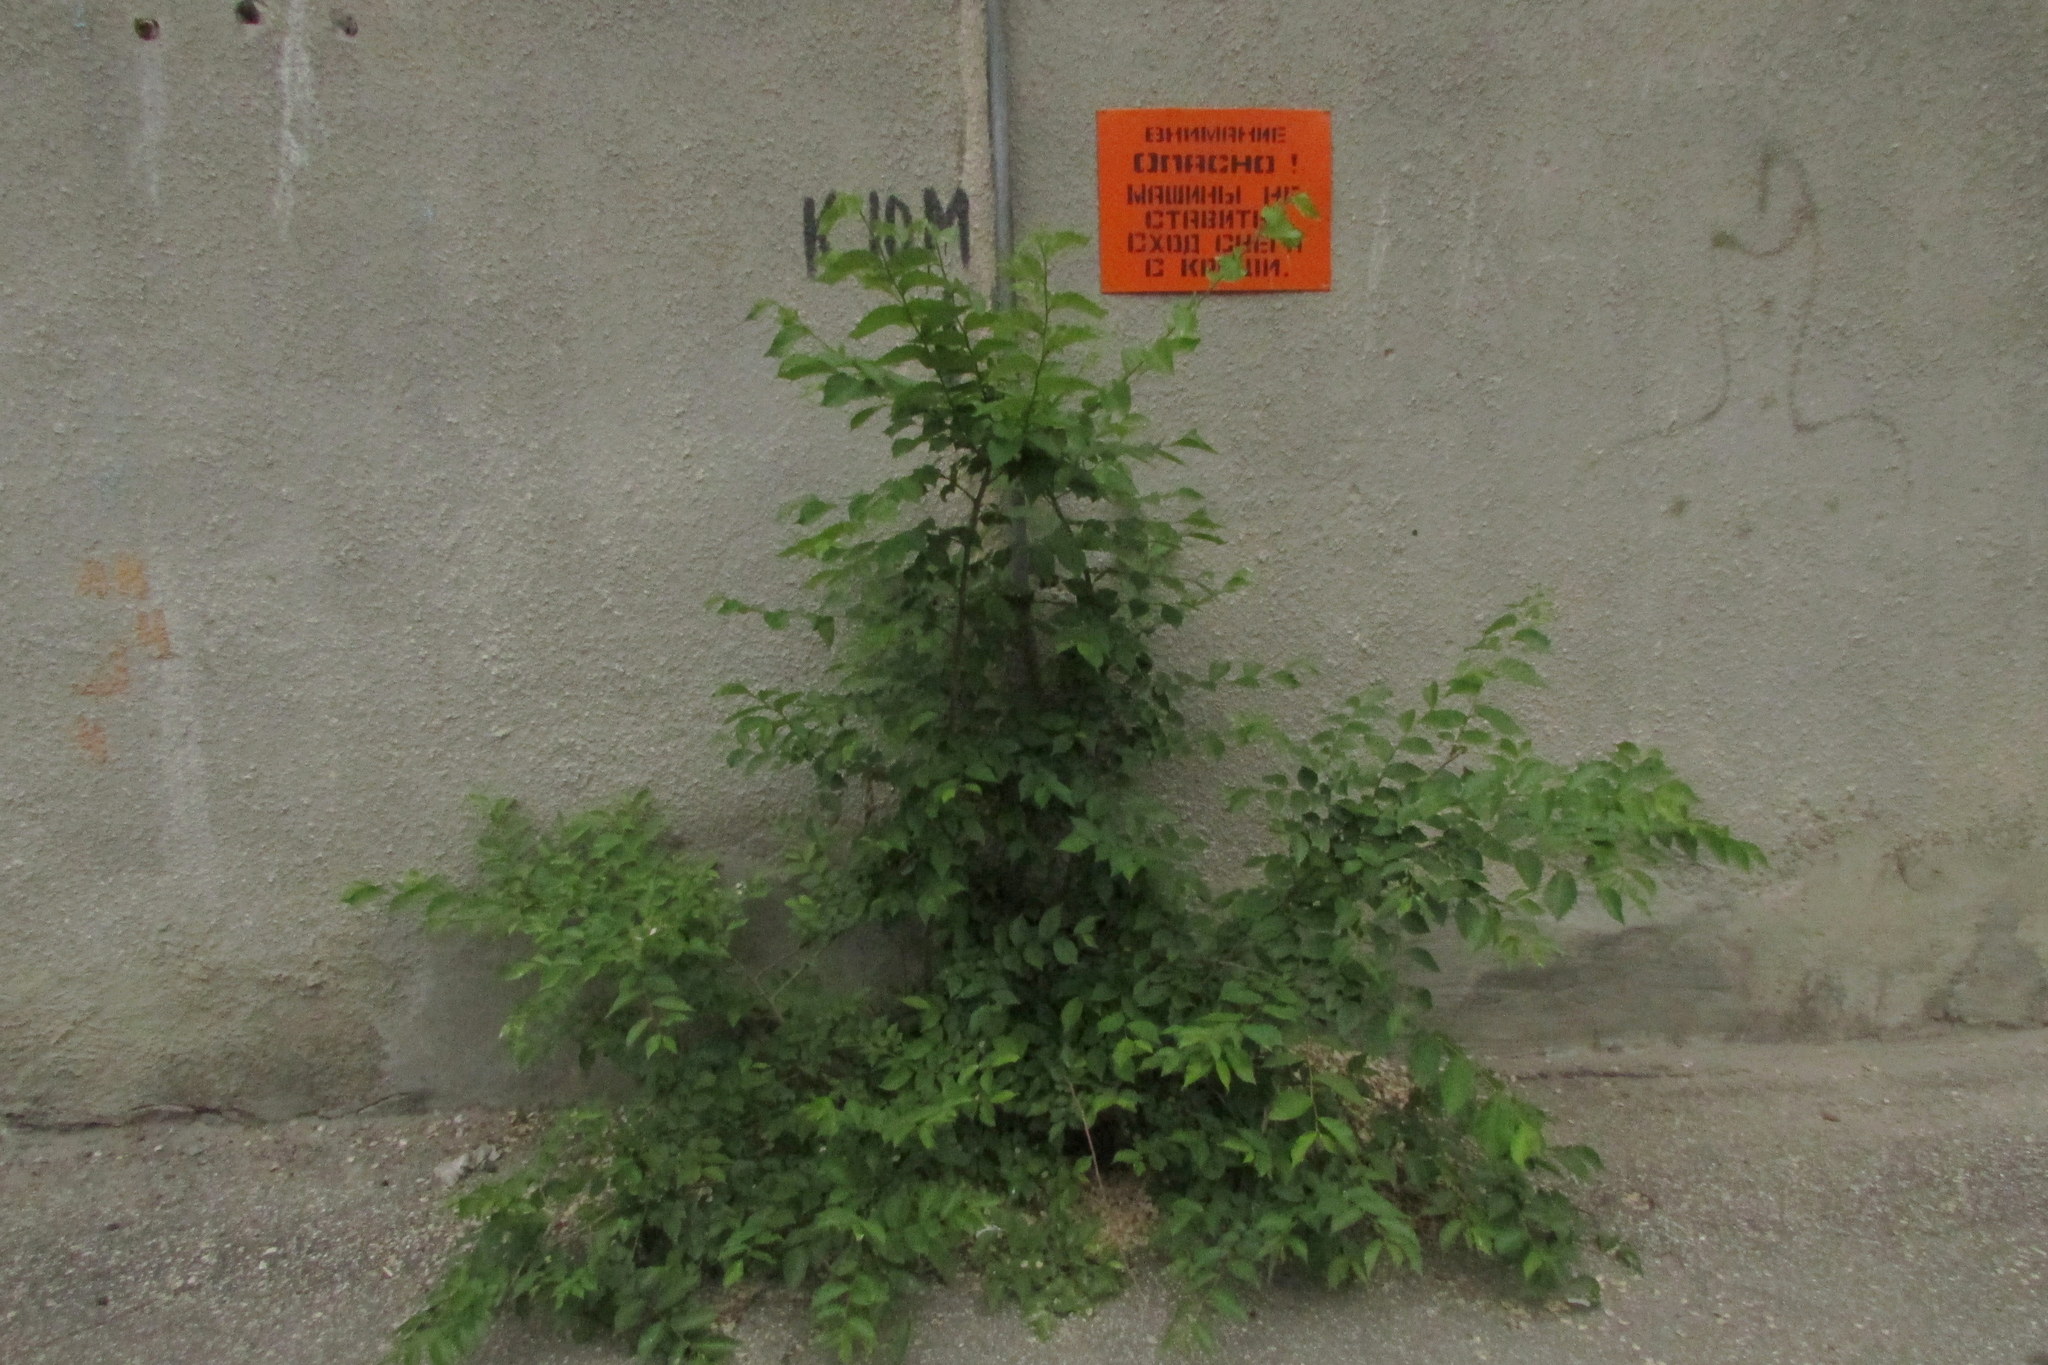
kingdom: Plantae
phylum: Tracheophyta
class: Magnoliopsida
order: Rosales
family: Ulmaceae
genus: Ulmus
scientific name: Ulmus pumila
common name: Siberian elm
